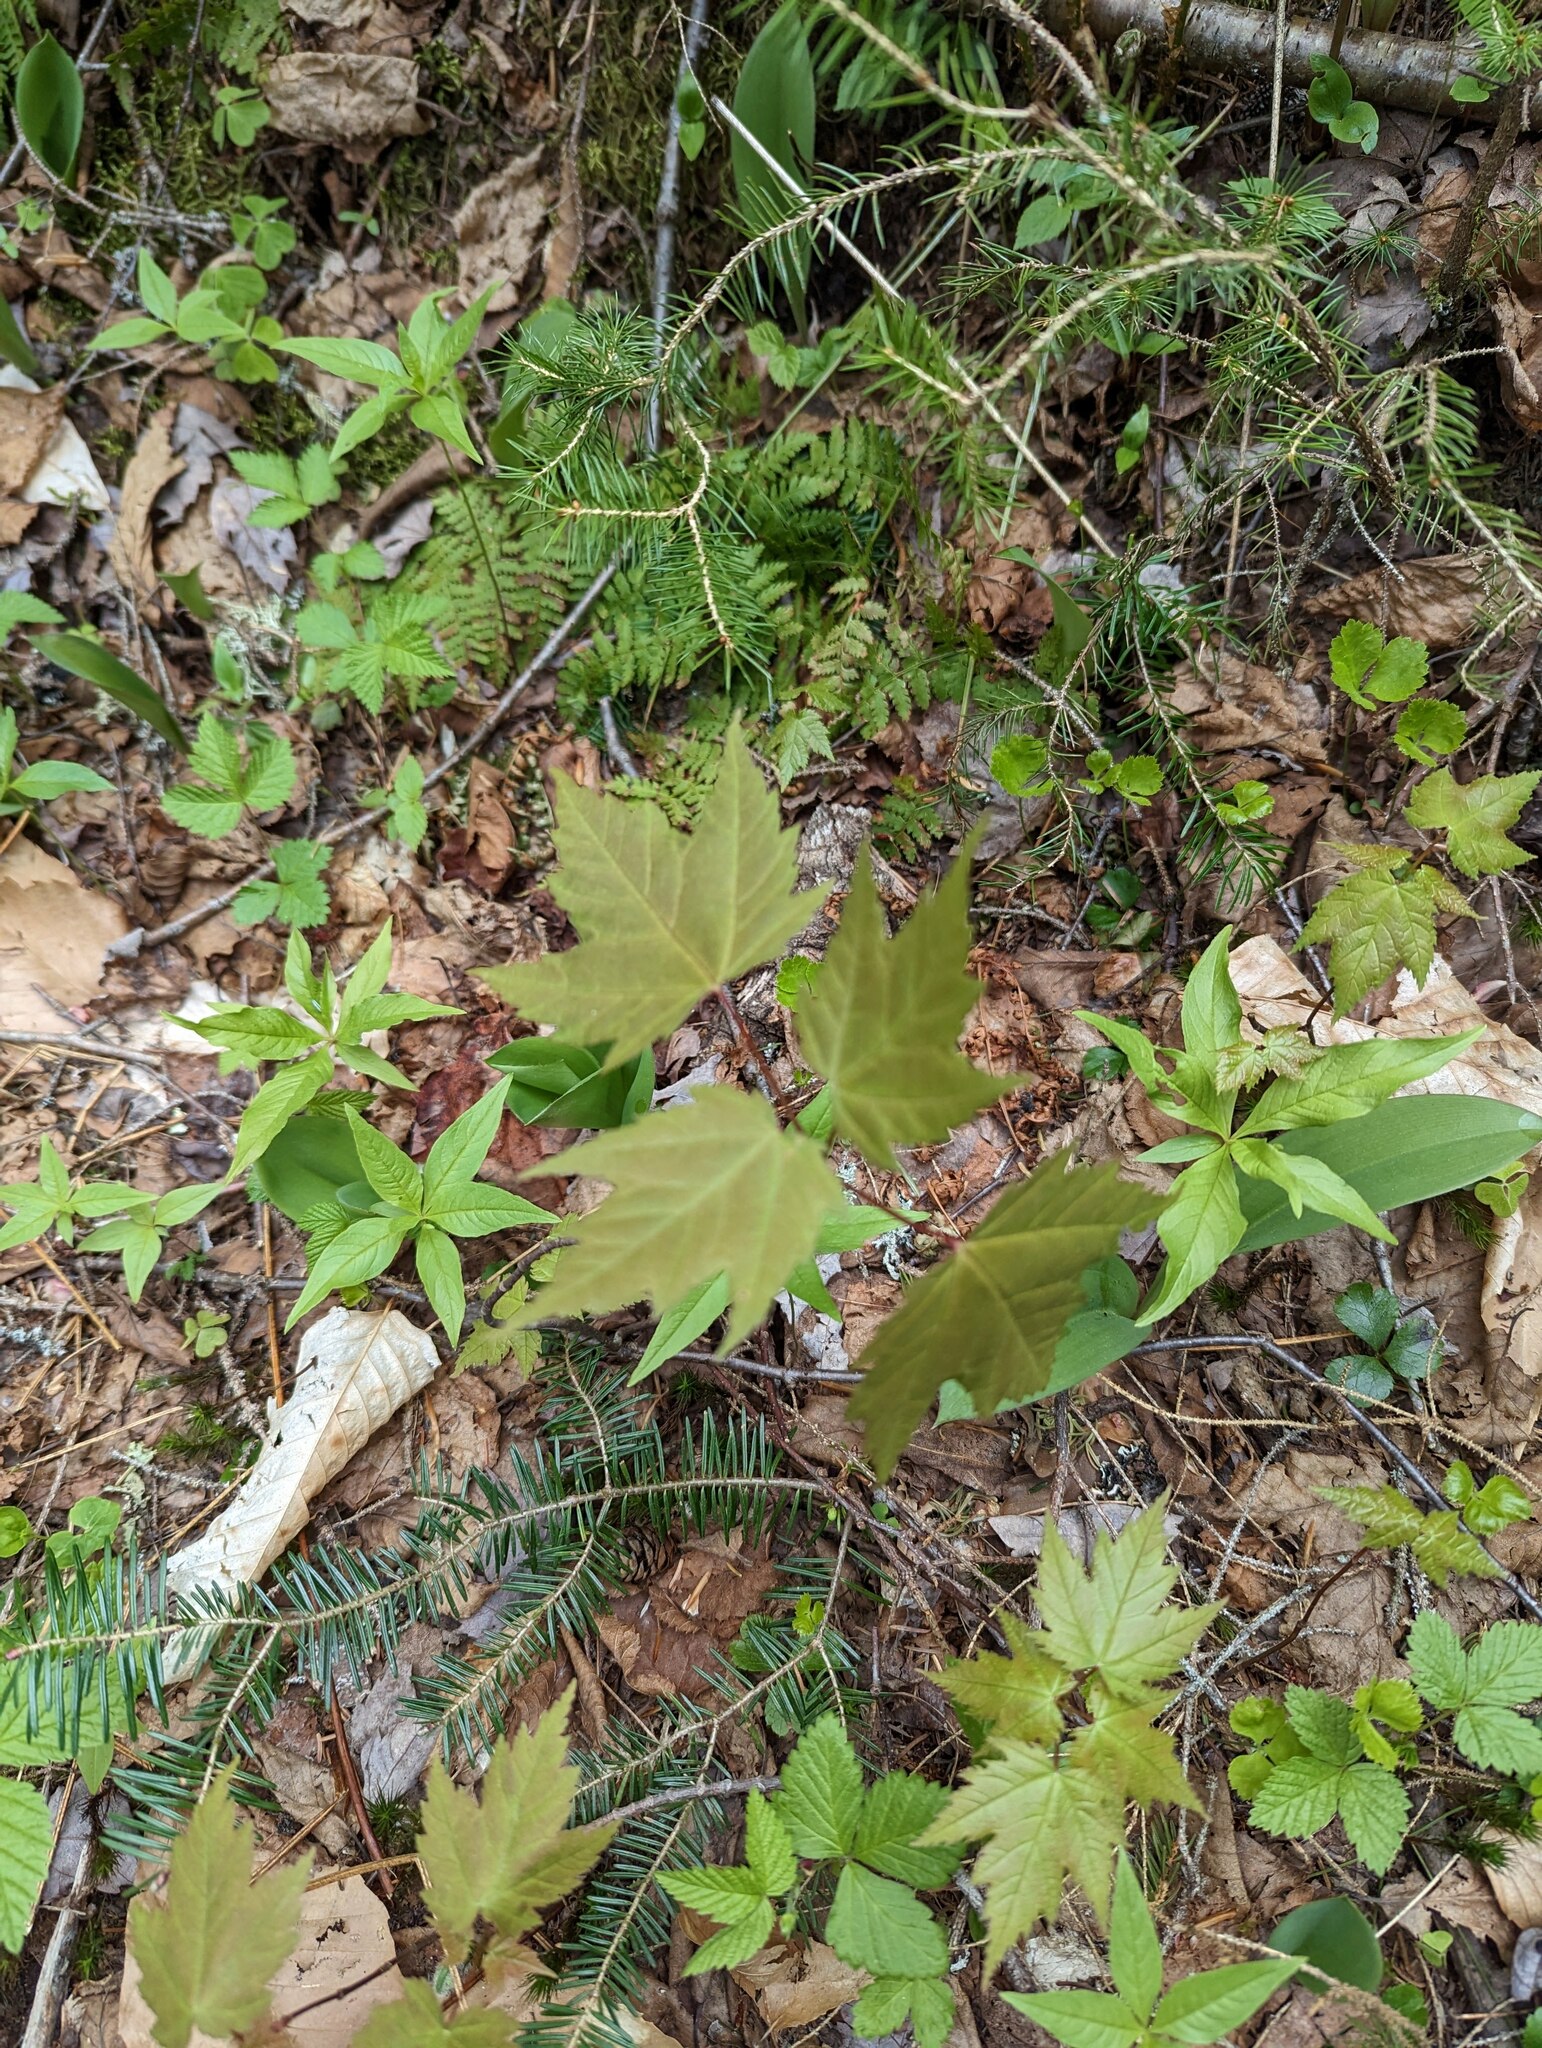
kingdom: Plantae
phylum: Tracheophyta
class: Magnoliopsida
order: Sapindales
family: Sapindaceae
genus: Acer
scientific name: Acer rubrum
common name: Red maple
